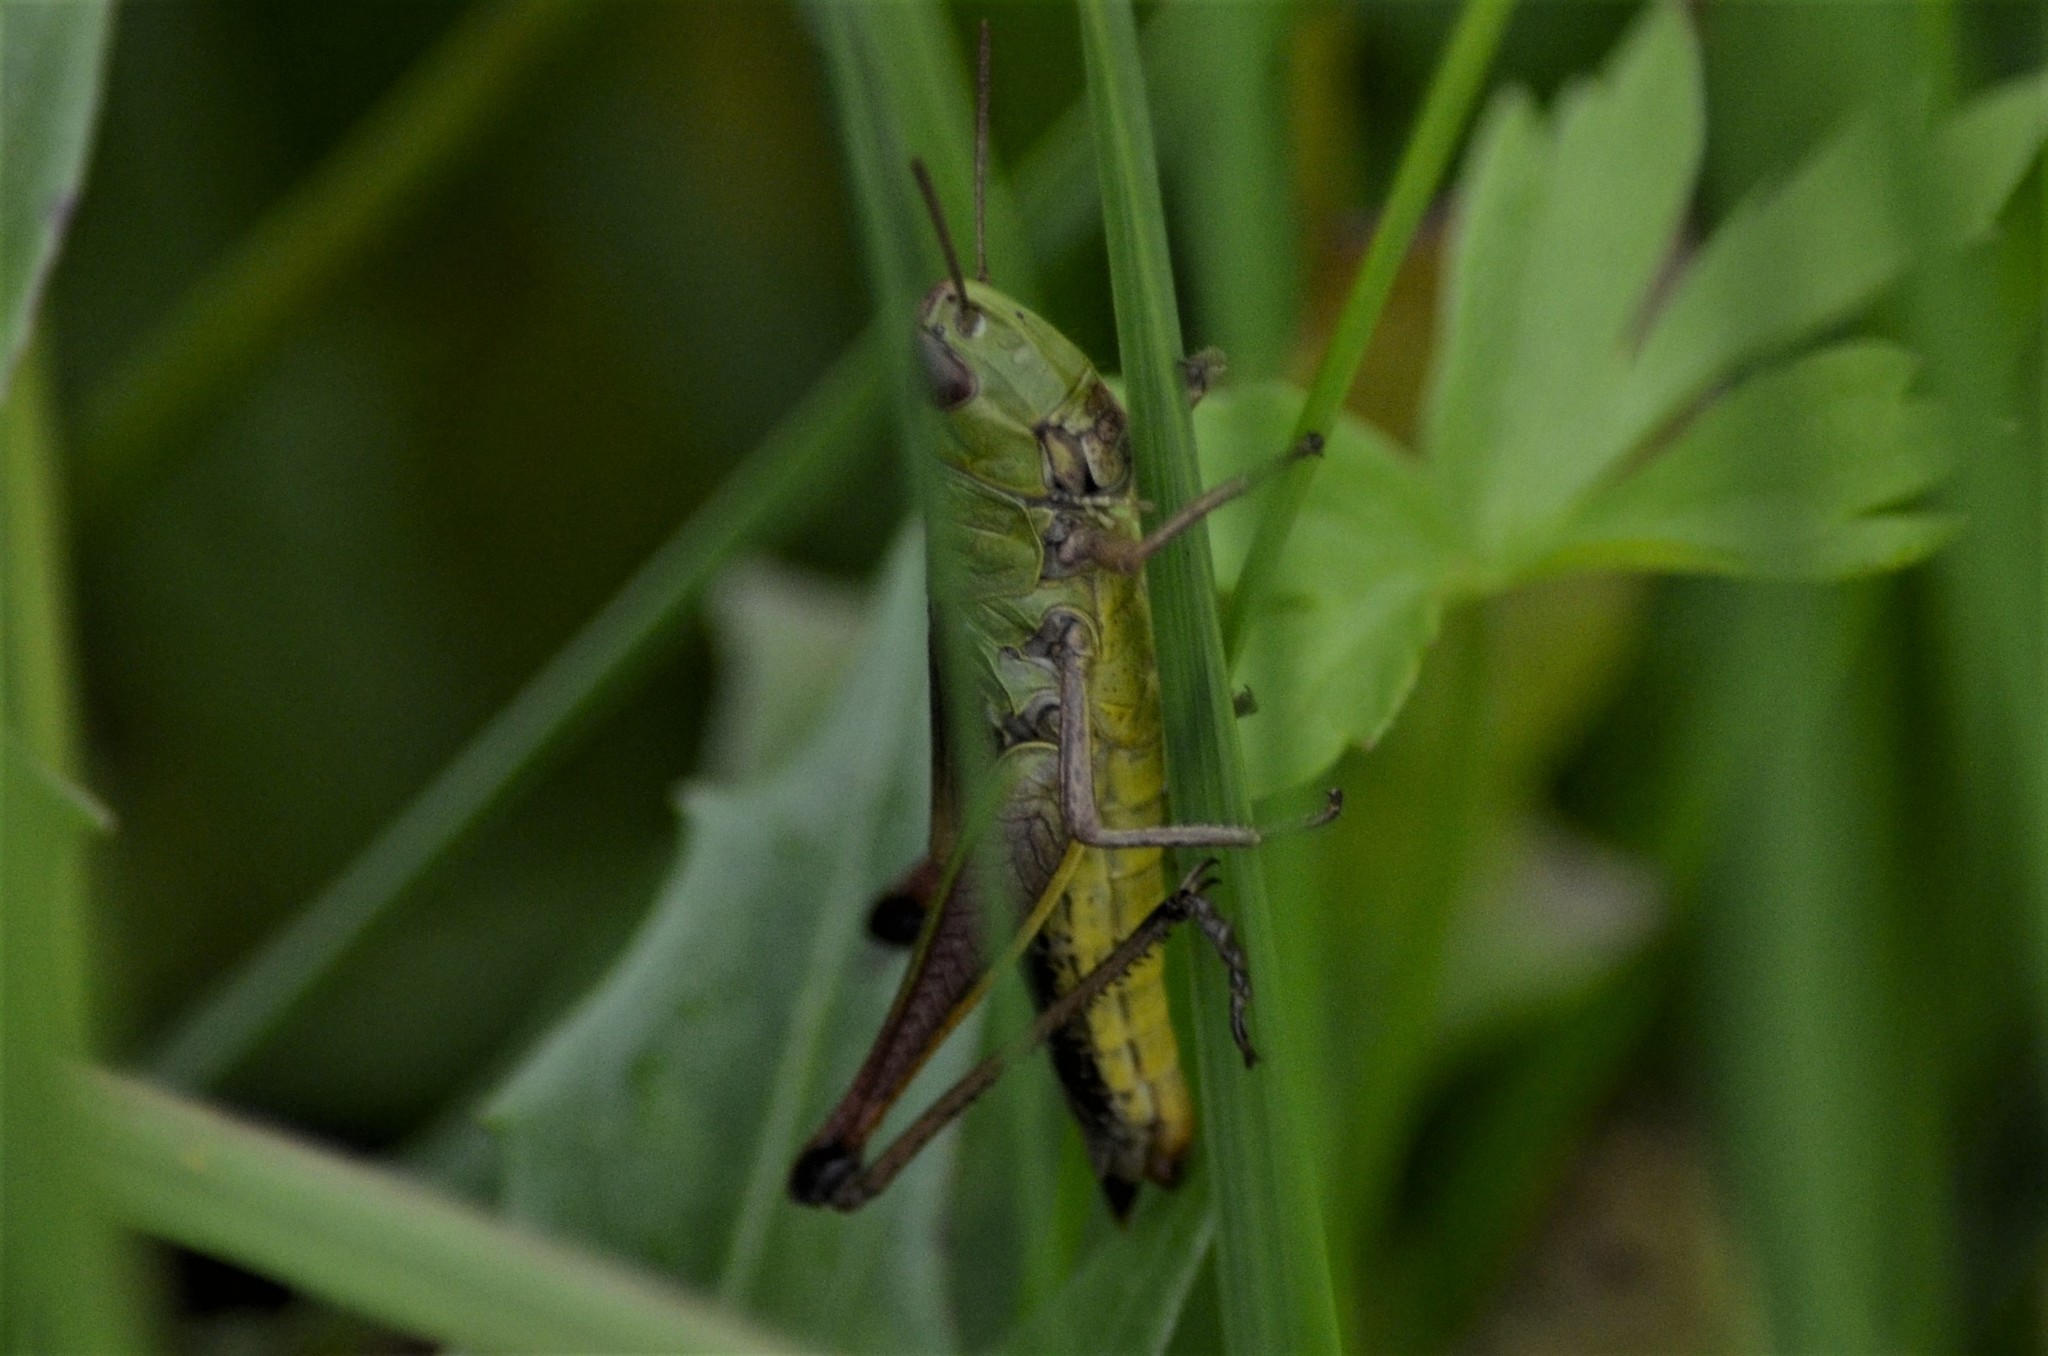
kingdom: Animalia
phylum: Arthropoda
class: Insecta
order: Orthoptera
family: Acrididae
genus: Pseudochorthippus
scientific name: Pseudochorthippus parallelus
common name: Meadow grasshopper
